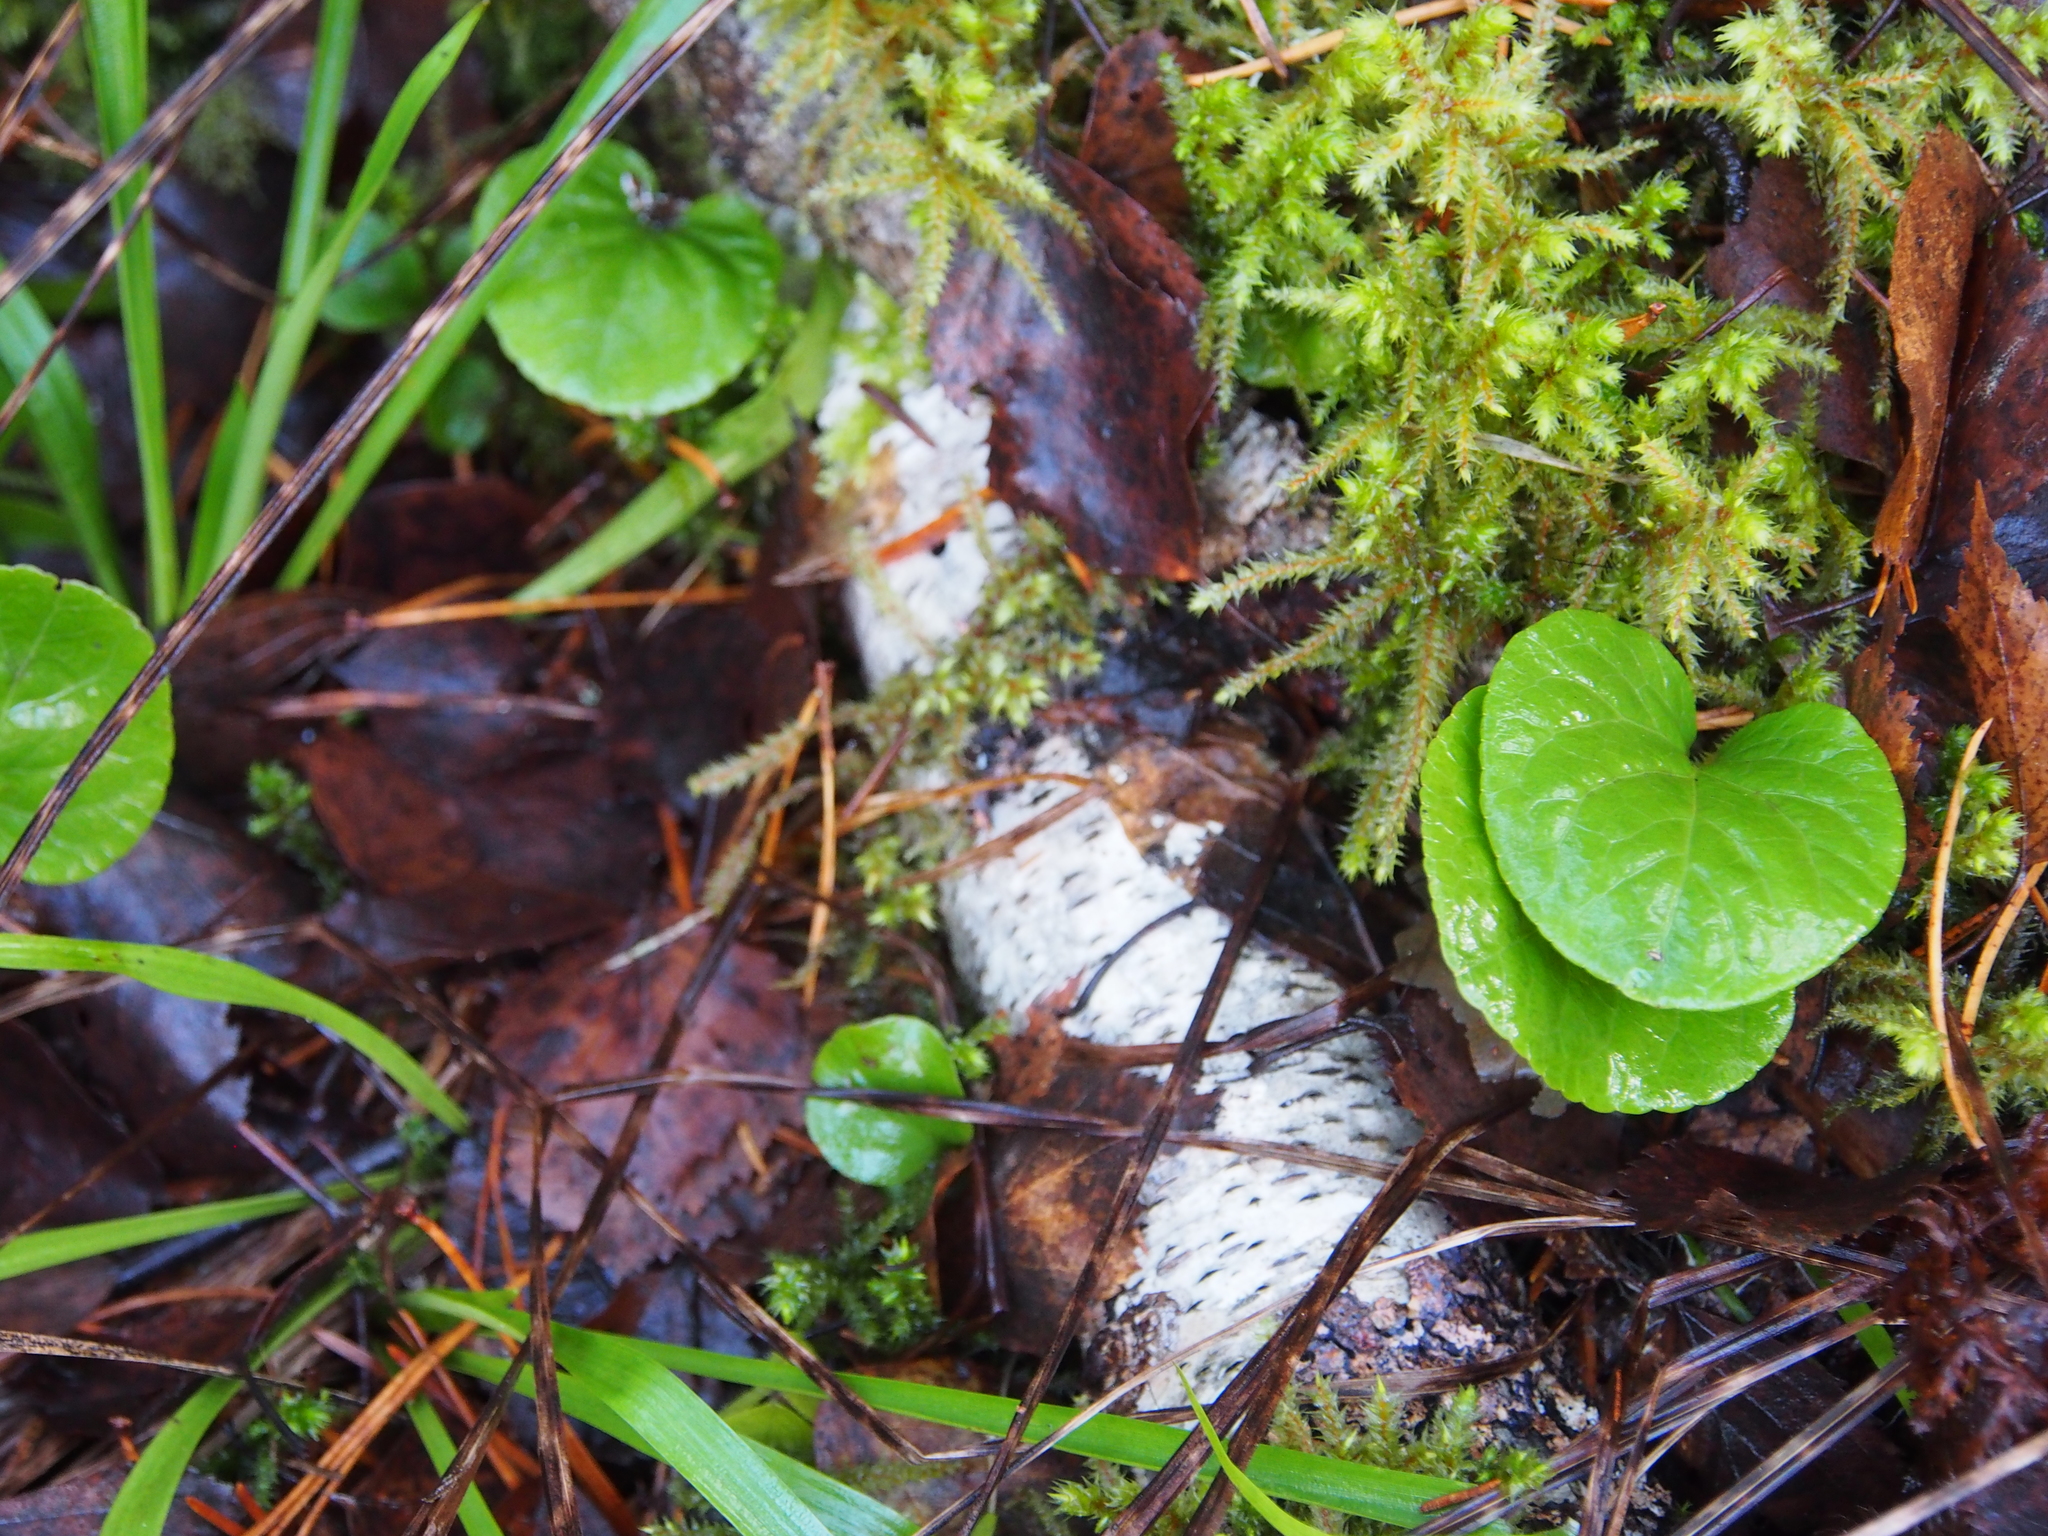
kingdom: Plantae
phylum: Tracheophyta
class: Magnoliopsida
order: Piperales
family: Aristolochiaceae
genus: Asarum
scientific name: Asarum europaeum
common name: Asarabacca
